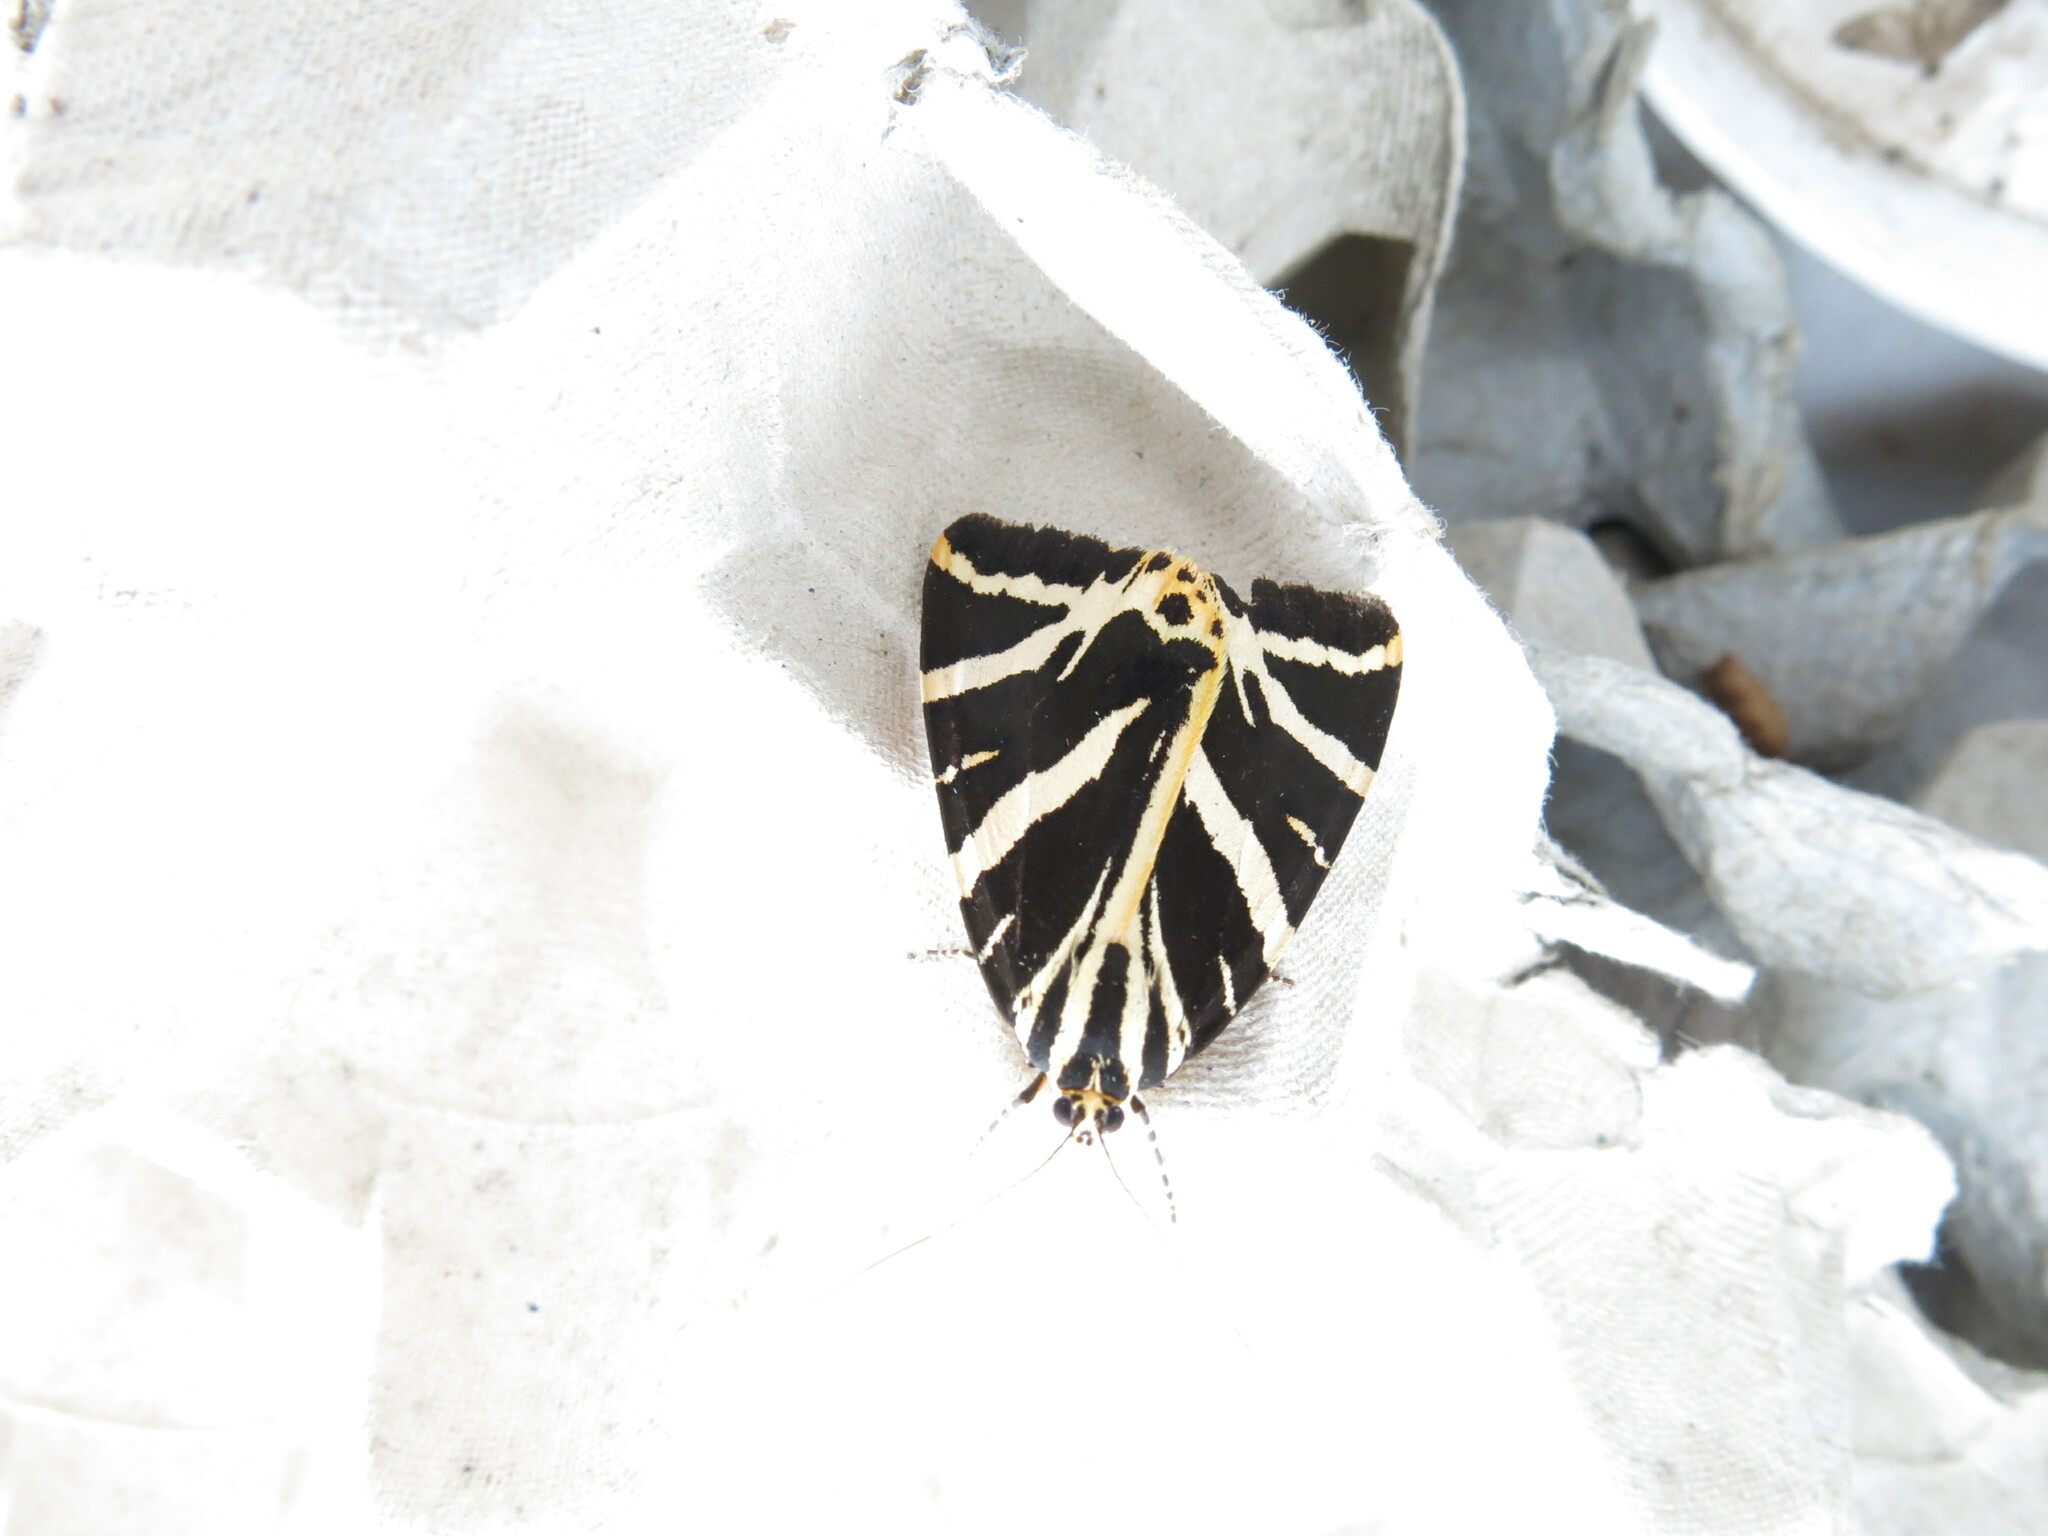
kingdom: Animalia
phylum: Arthropoda
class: Insecta
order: Lepidoptera
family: Erebidae
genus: Euplagia
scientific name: Euplagia quadripunctaria
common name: Jersey tiger
